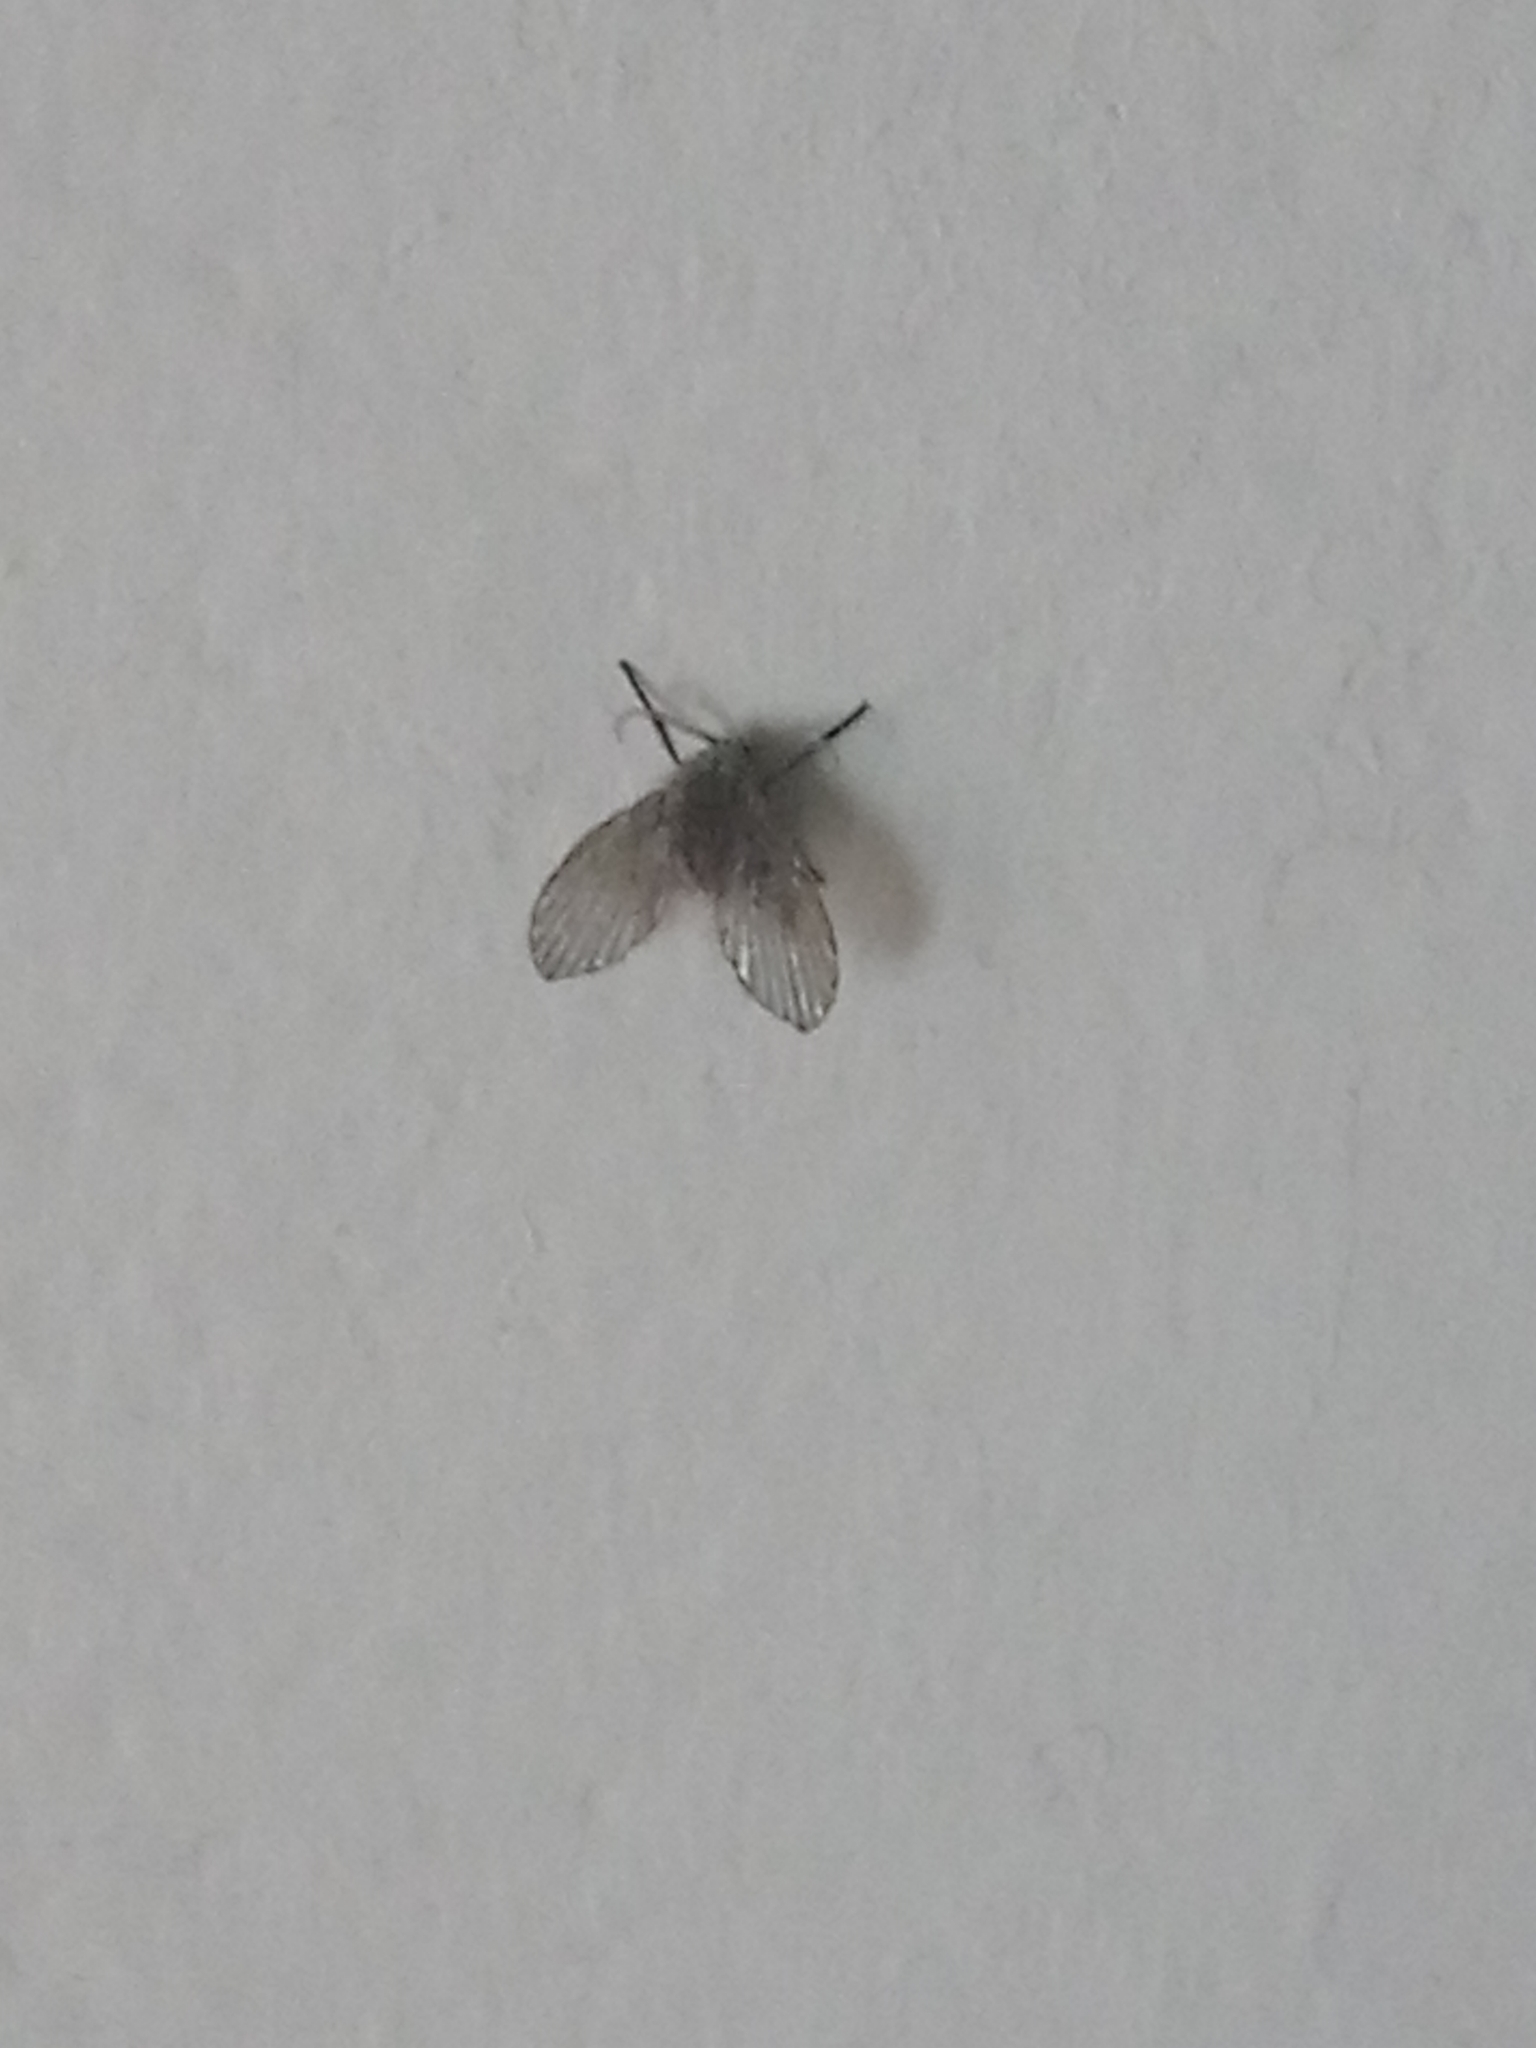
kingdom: Animalia
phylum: Arthropoda
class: Insecta
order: Diptera
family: Psychodidae
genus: Clogmia
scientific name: Clogmia albipunctatus
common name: White-spotted moth fly
